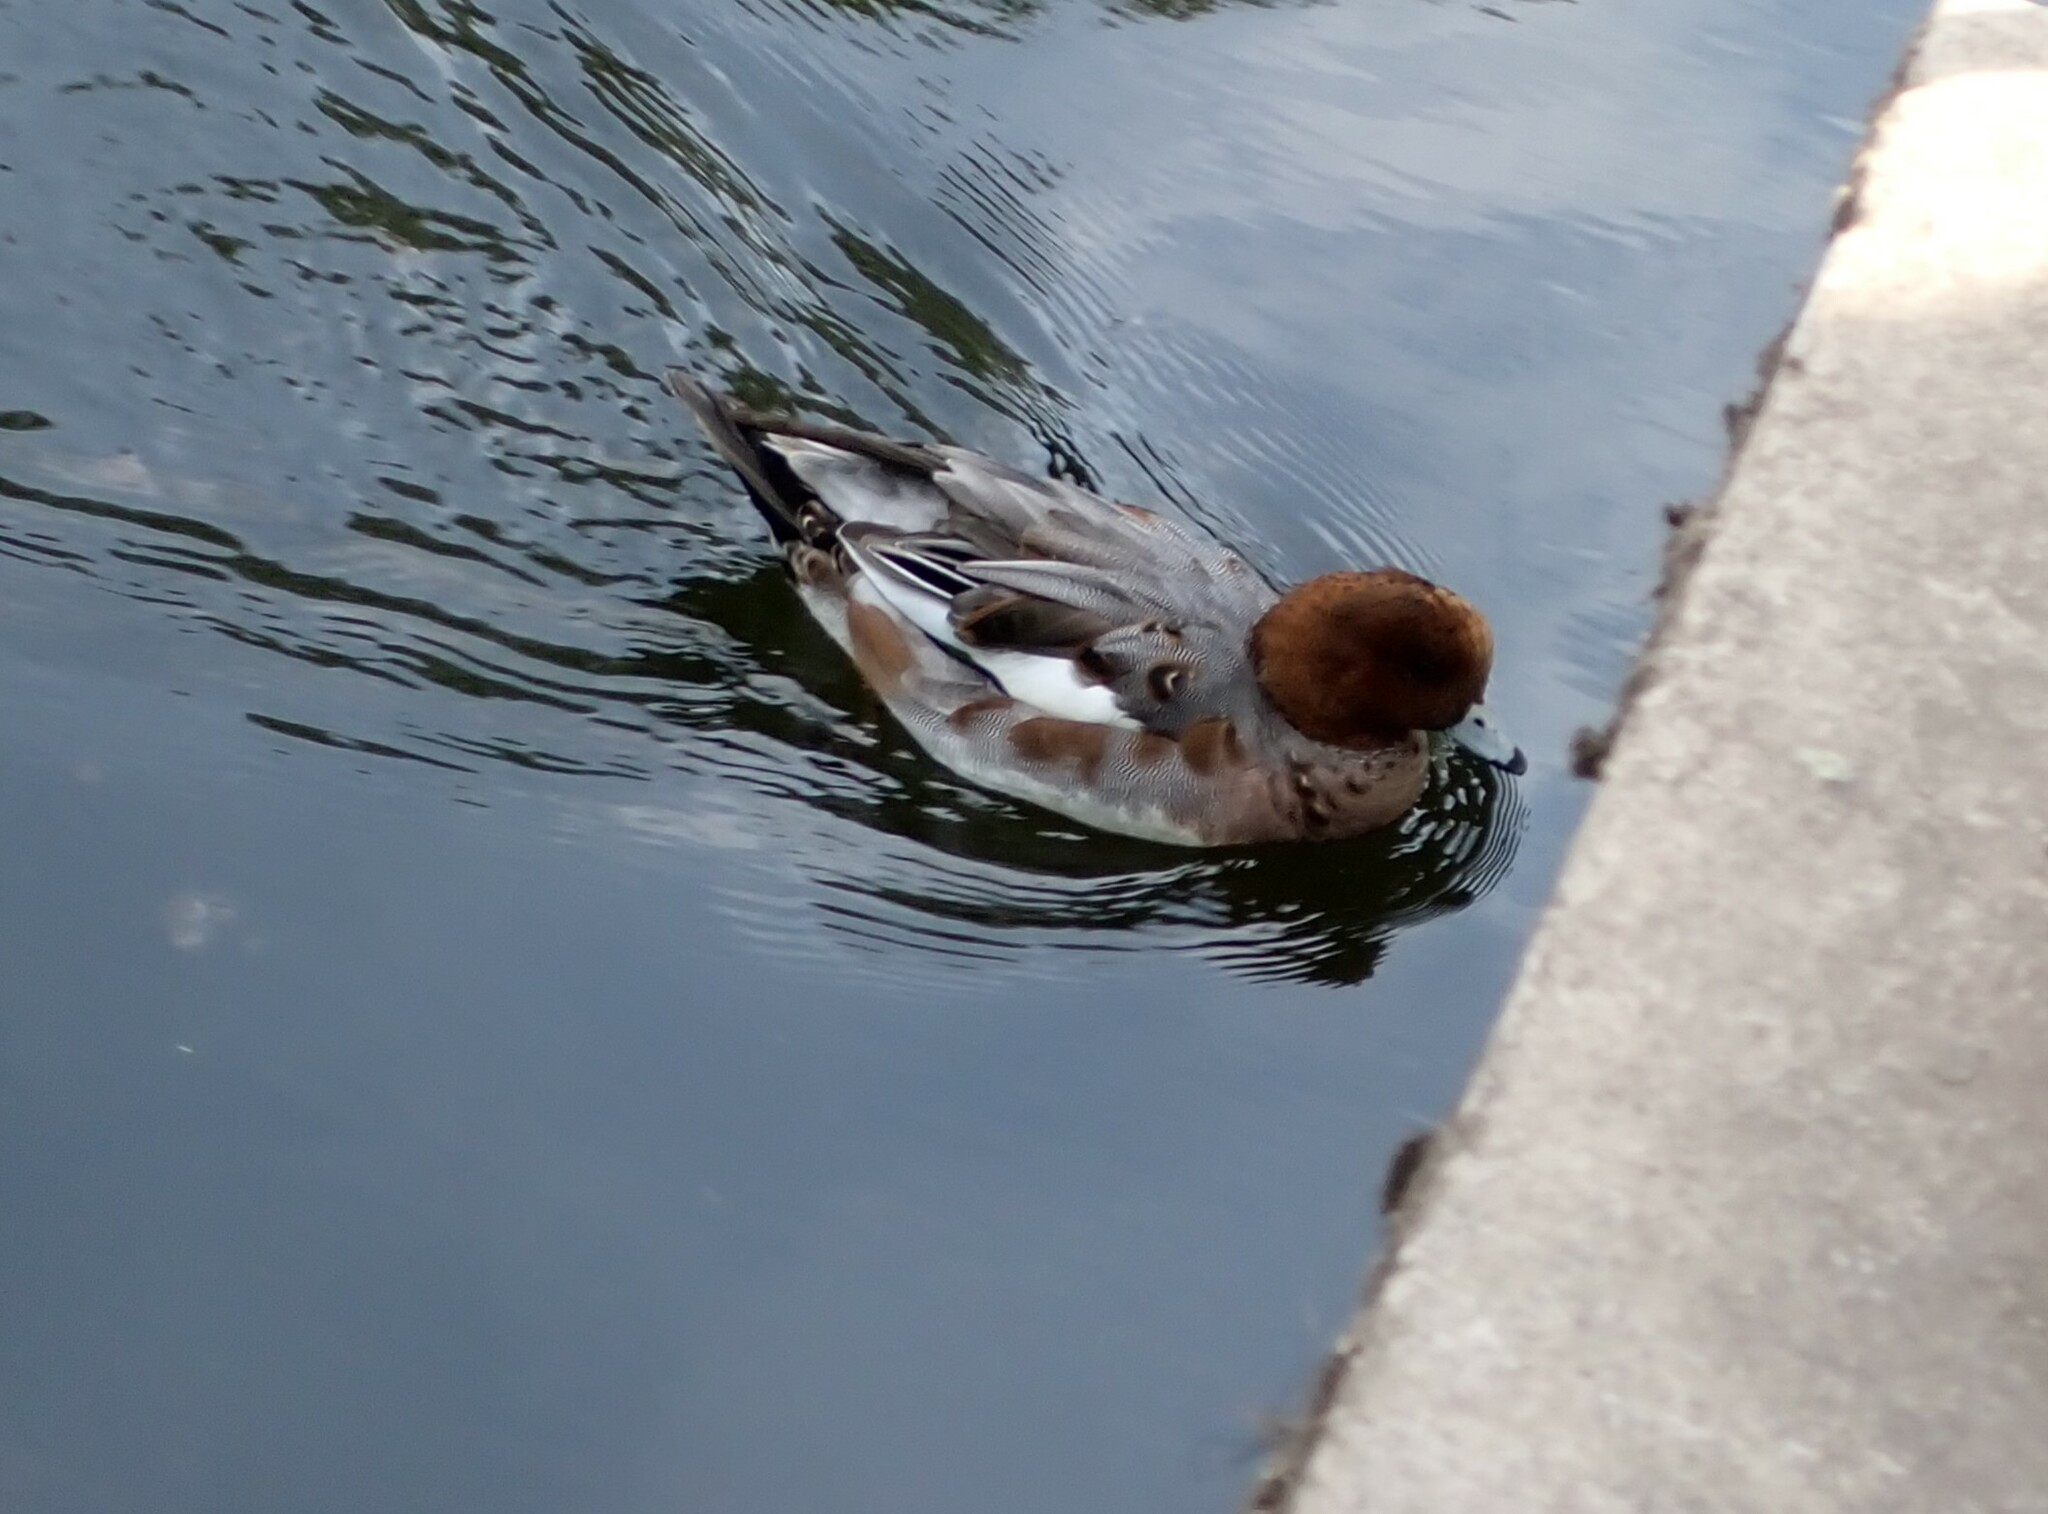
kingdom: Animalia
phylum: Chordata
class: Aves
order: Anseriformes
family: Anatidae
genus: Mareca
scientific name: Mareca penelope
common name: Eurasian wigeon
